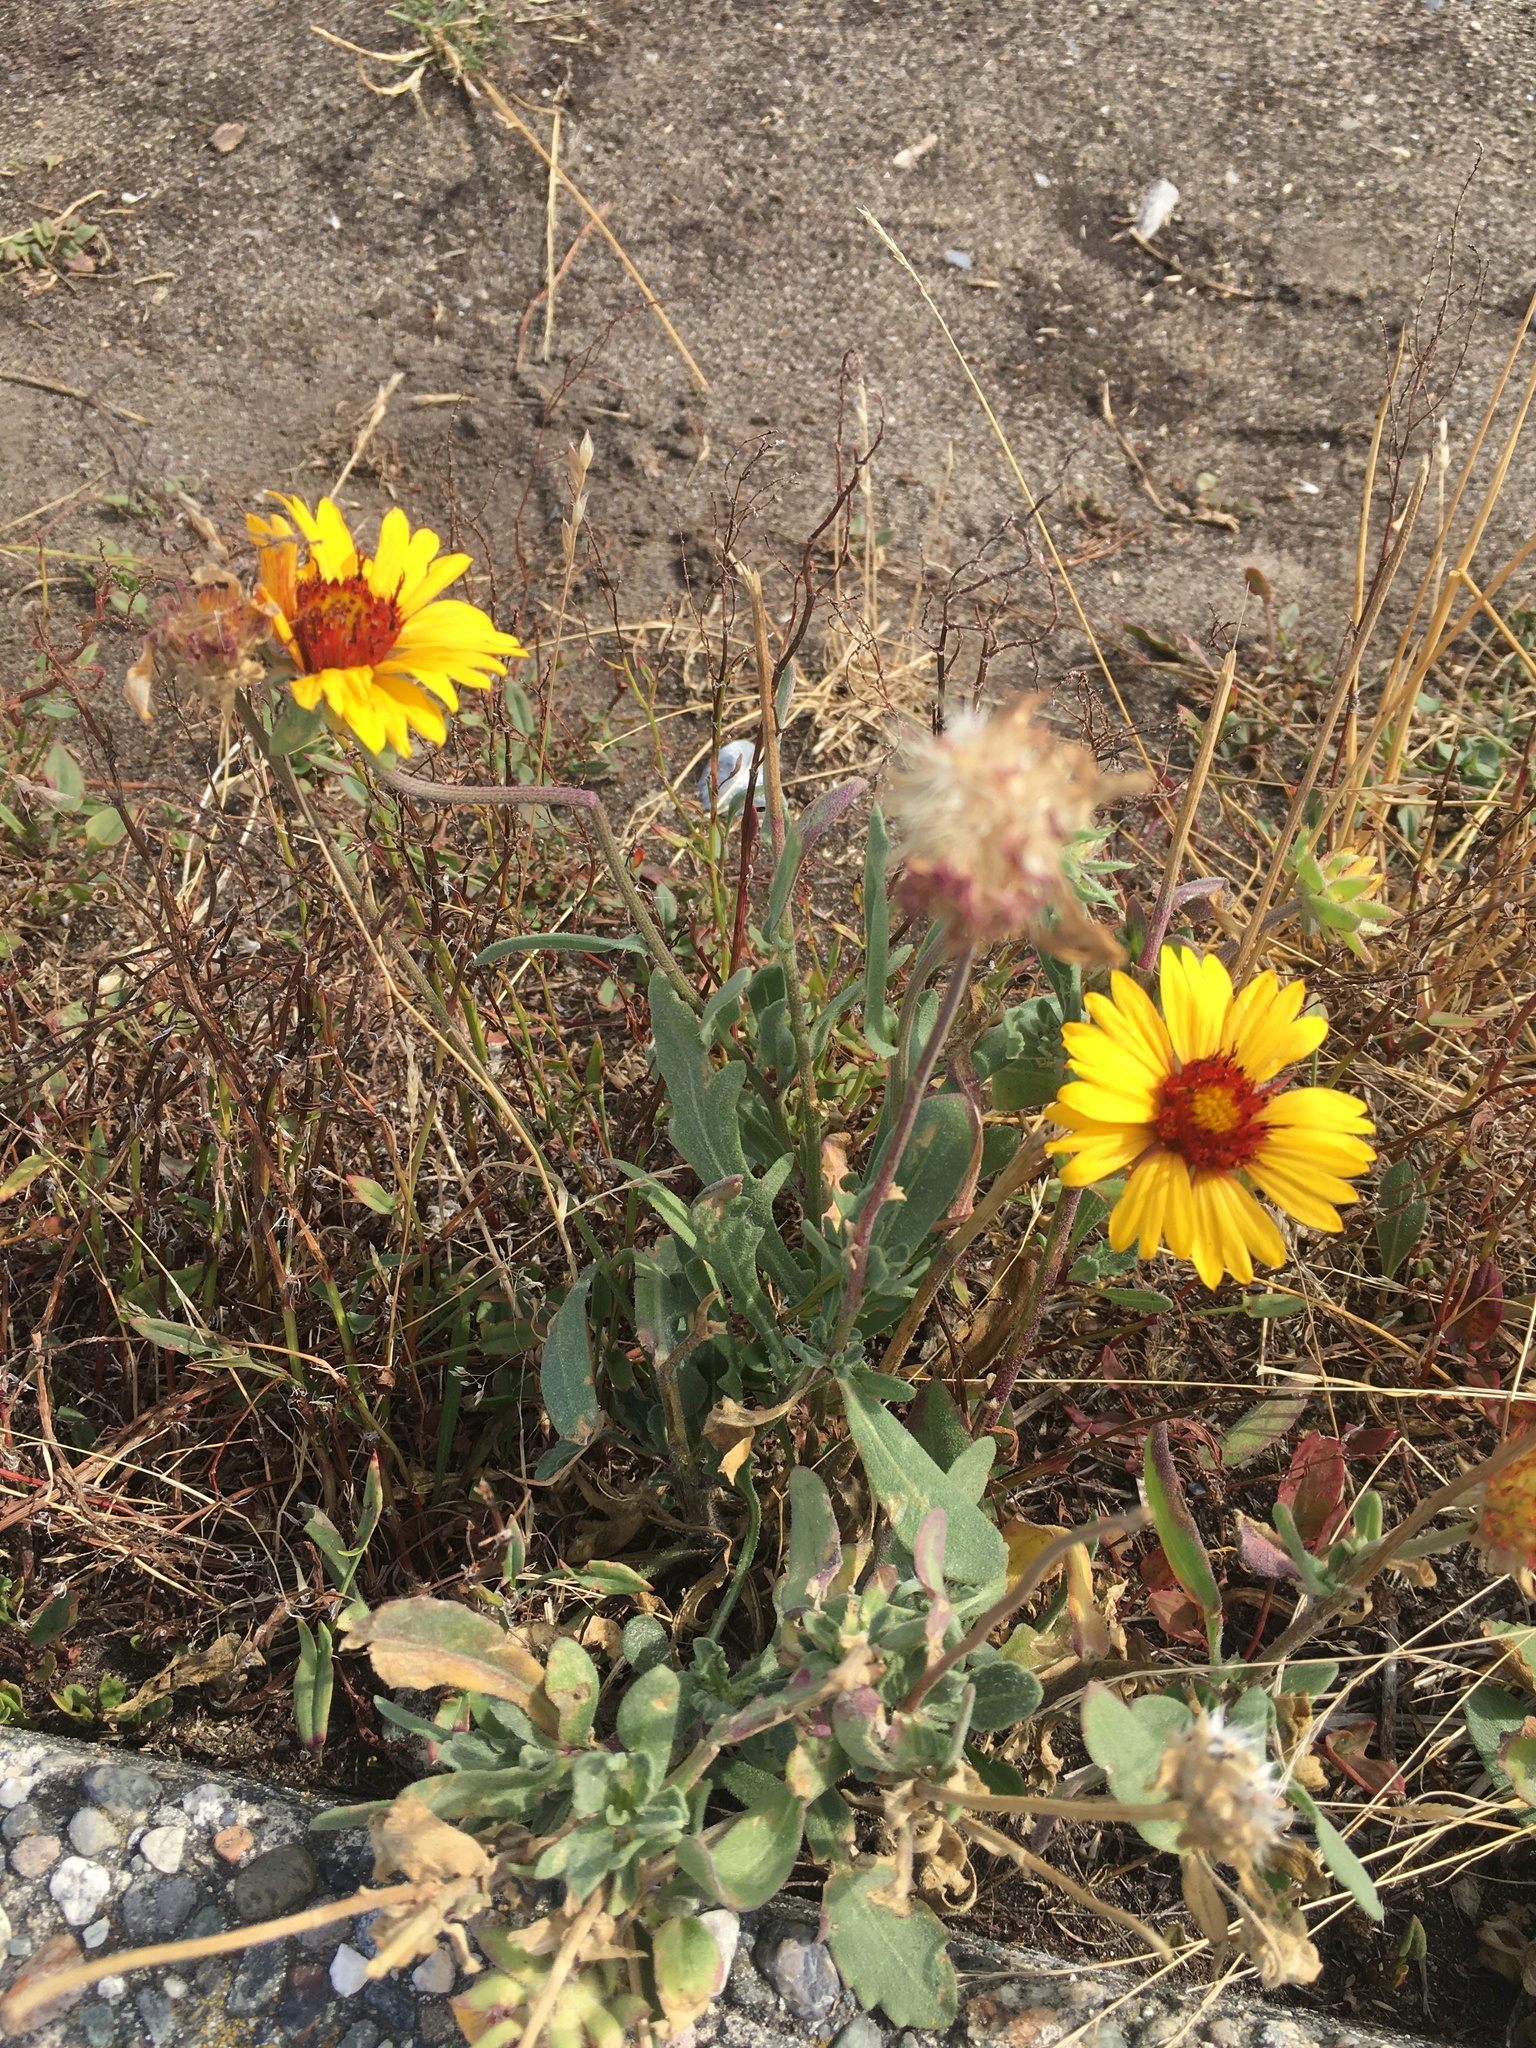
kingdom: Plantae
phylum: Tracheophyta
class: Magnoliopsida
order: Asterales
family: Asteraceae
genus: Gaillardia
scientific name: Gaillardia aristata
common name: Blanket-flower
